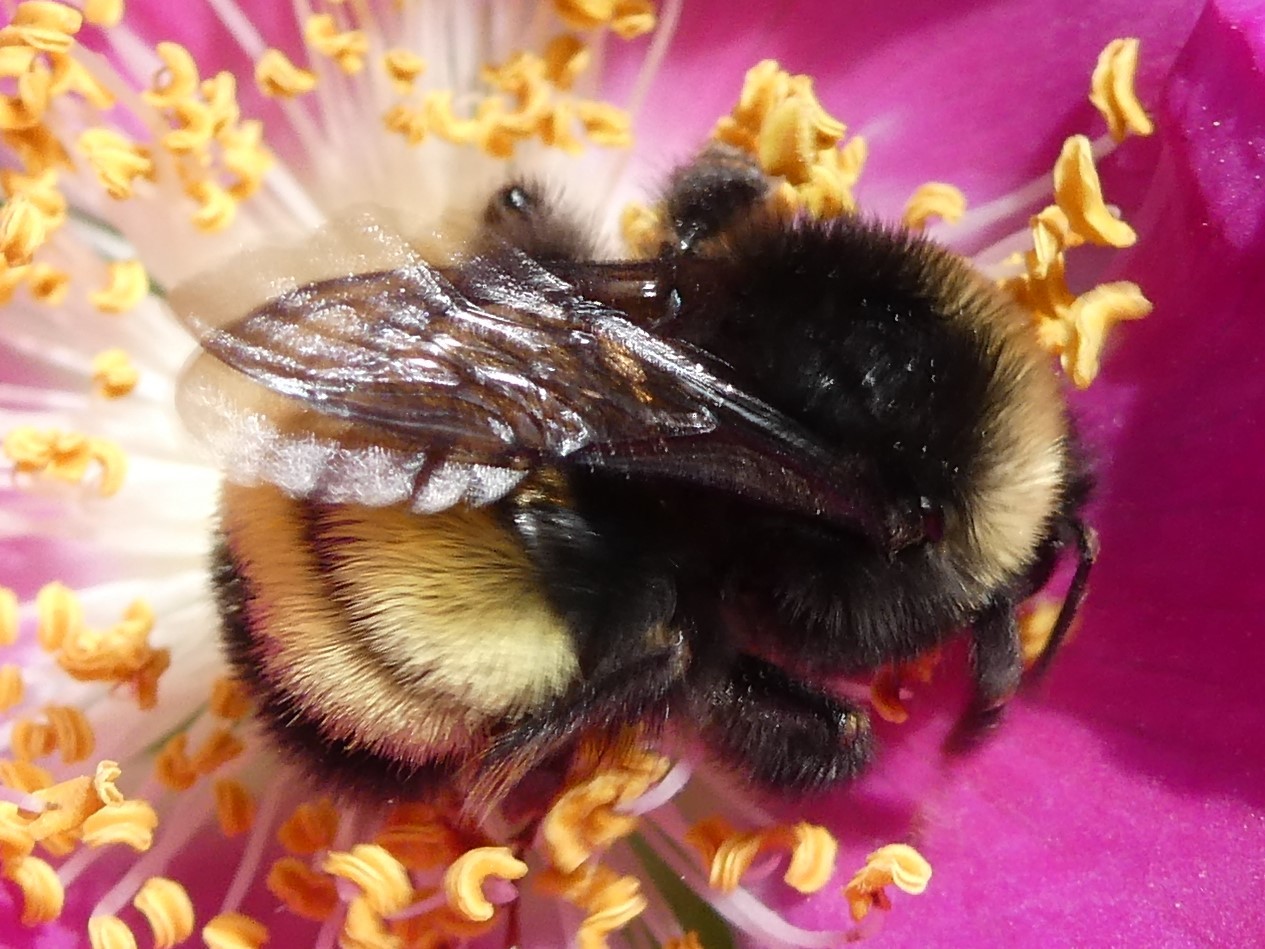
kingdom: Animalia
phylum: Arthropoda
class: Insecta
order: Hymenoptera
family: Apidae
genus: Bombus
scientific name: Bombus terricola
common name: Yellow-banded bumble bee
